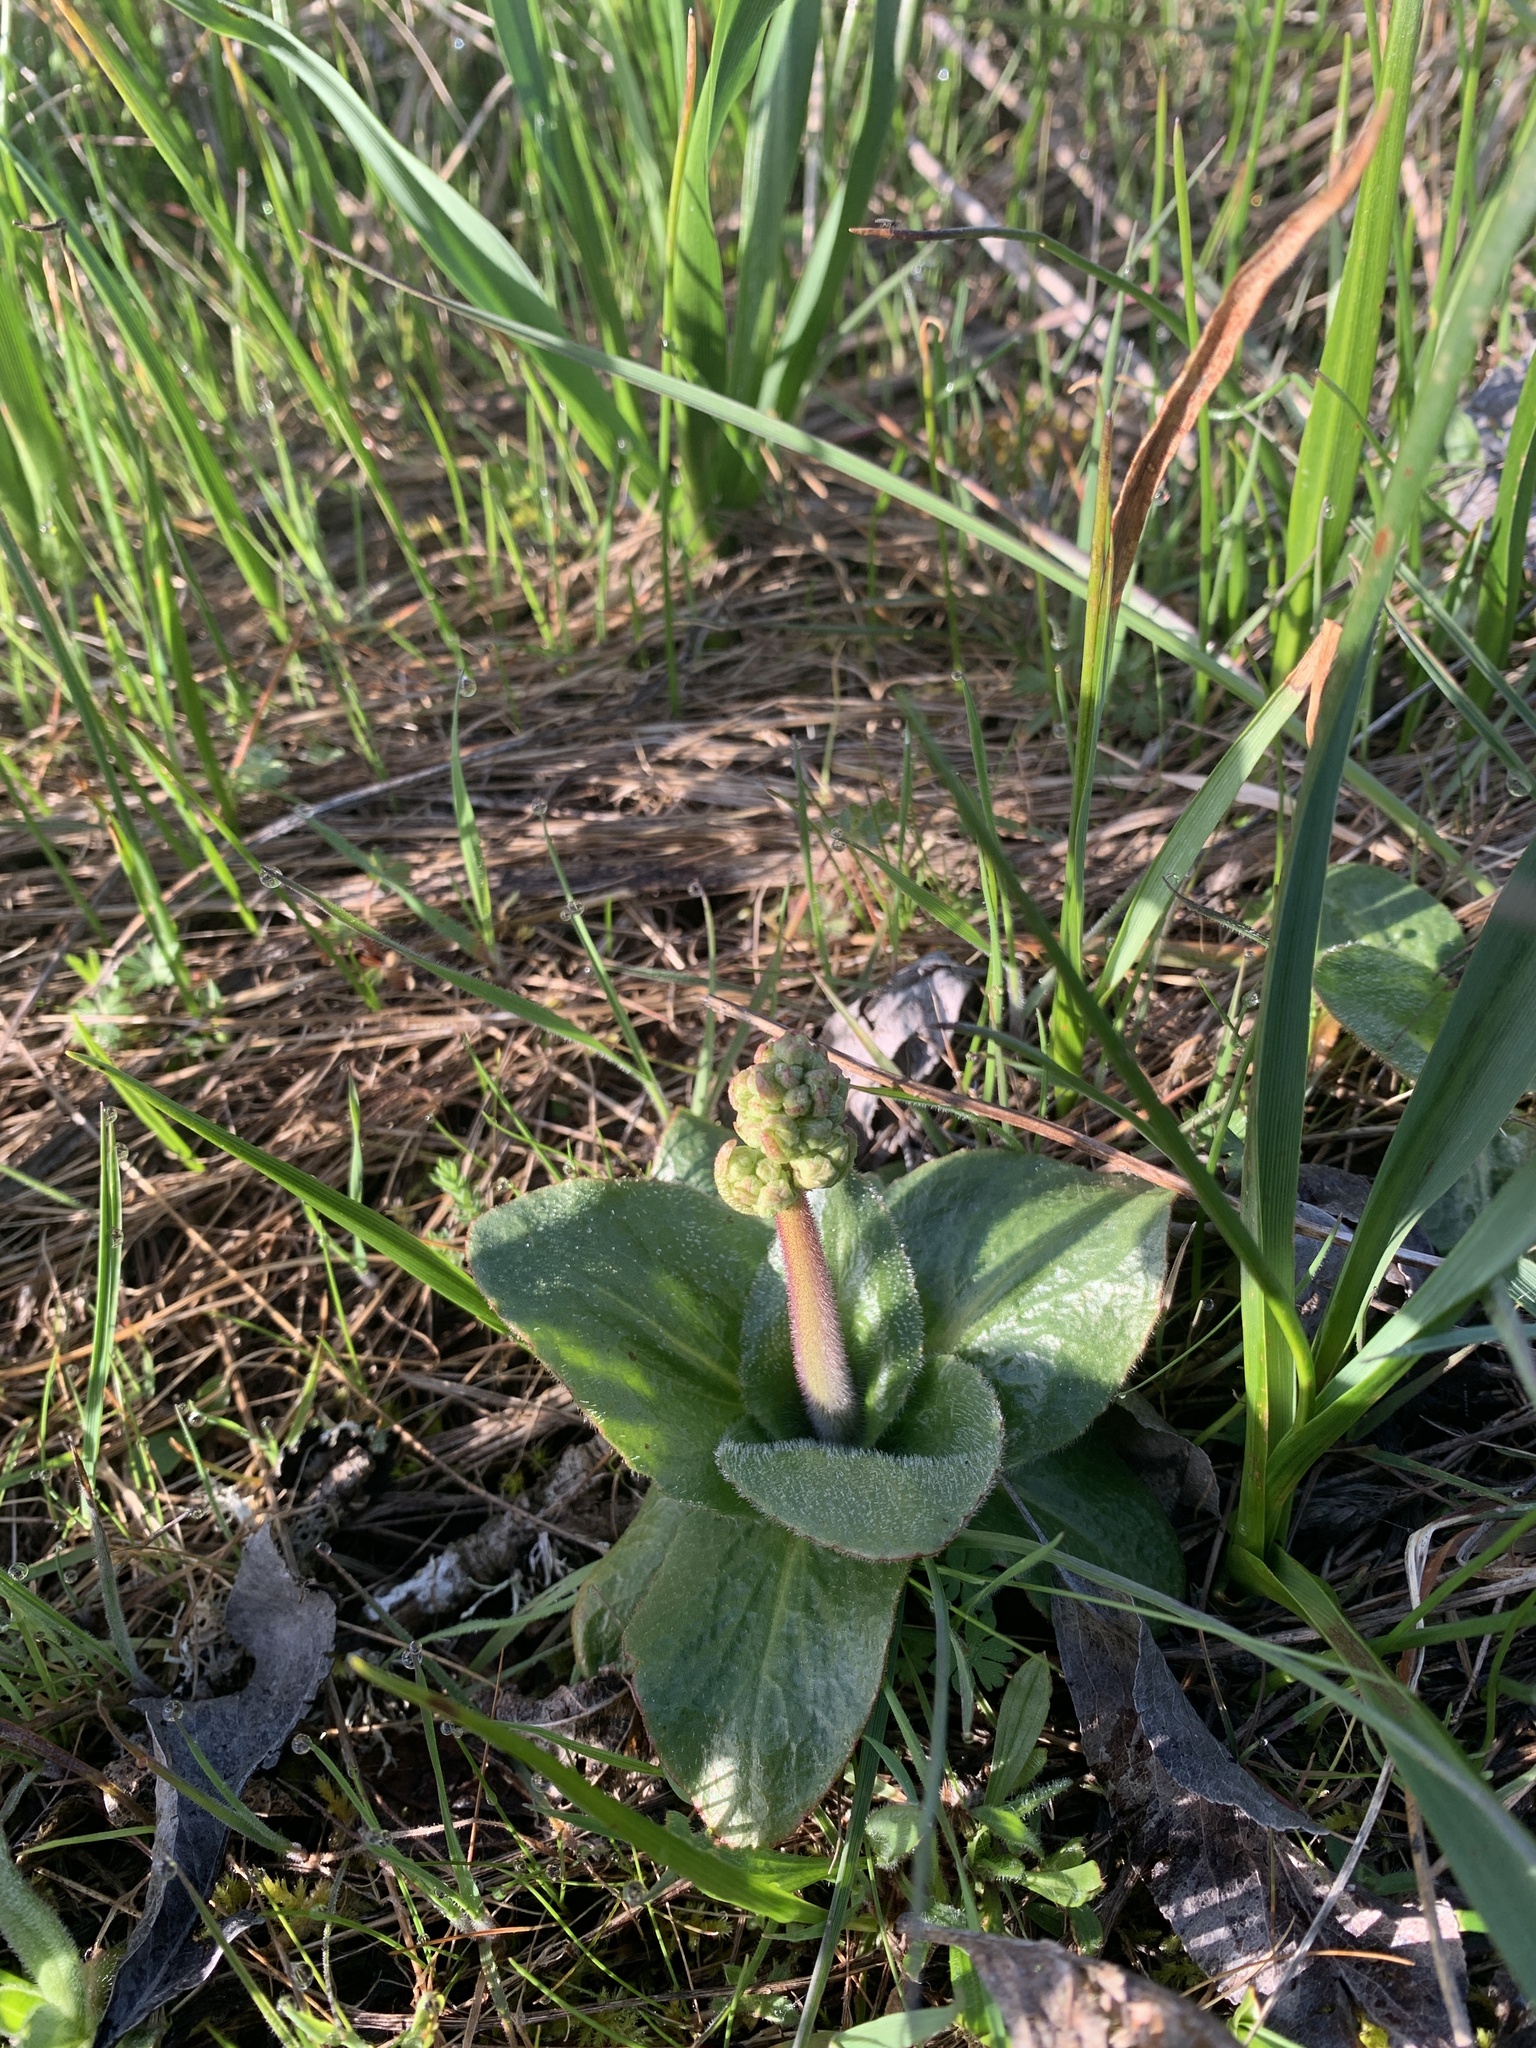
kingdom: Plantae
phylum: Tracheophyta
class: Magnoliopsida
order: Saxifragales
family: Saxifragaceae
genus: Micranthes
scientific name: Micranthes oregana
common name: Bog saxifrage
